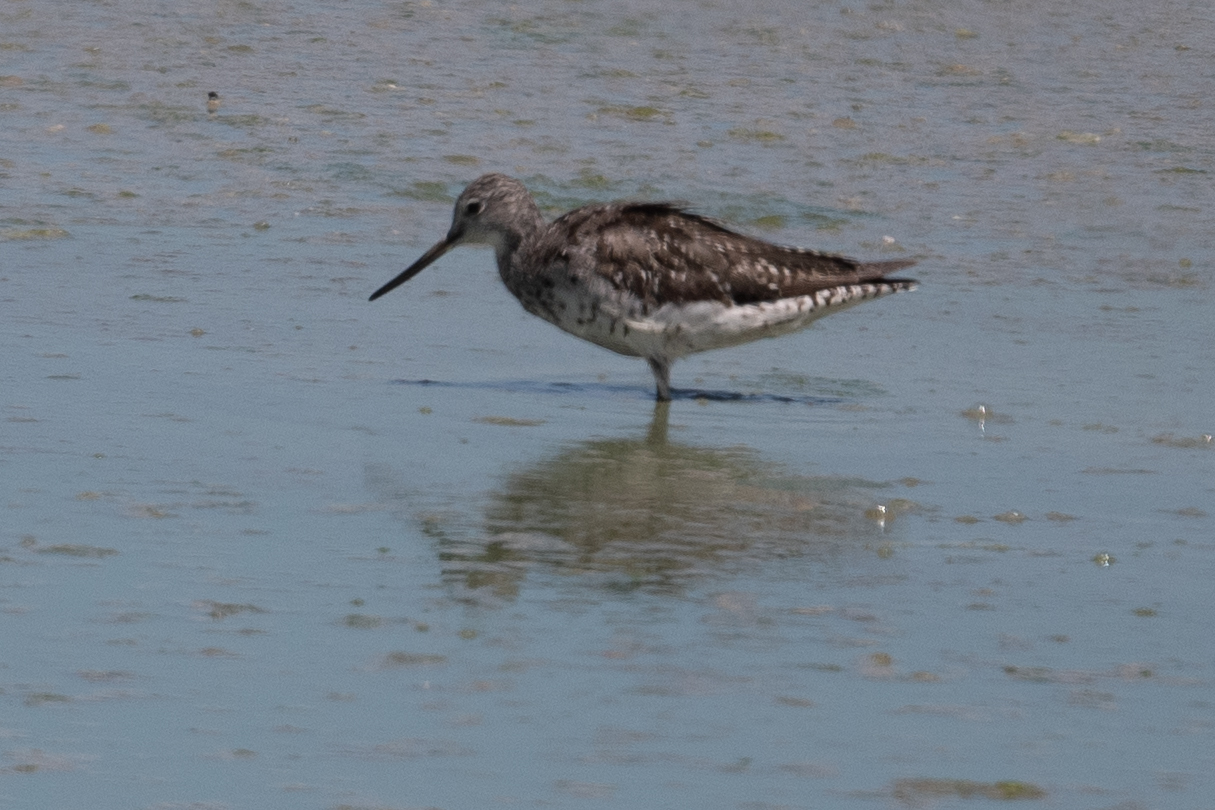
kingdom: Animalia
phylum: Chordata
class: Aves
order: Charadriiformes
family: Scolopacidae
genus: Tringa
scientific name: Tringa melanoleuca
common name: Greater yellowlegs
